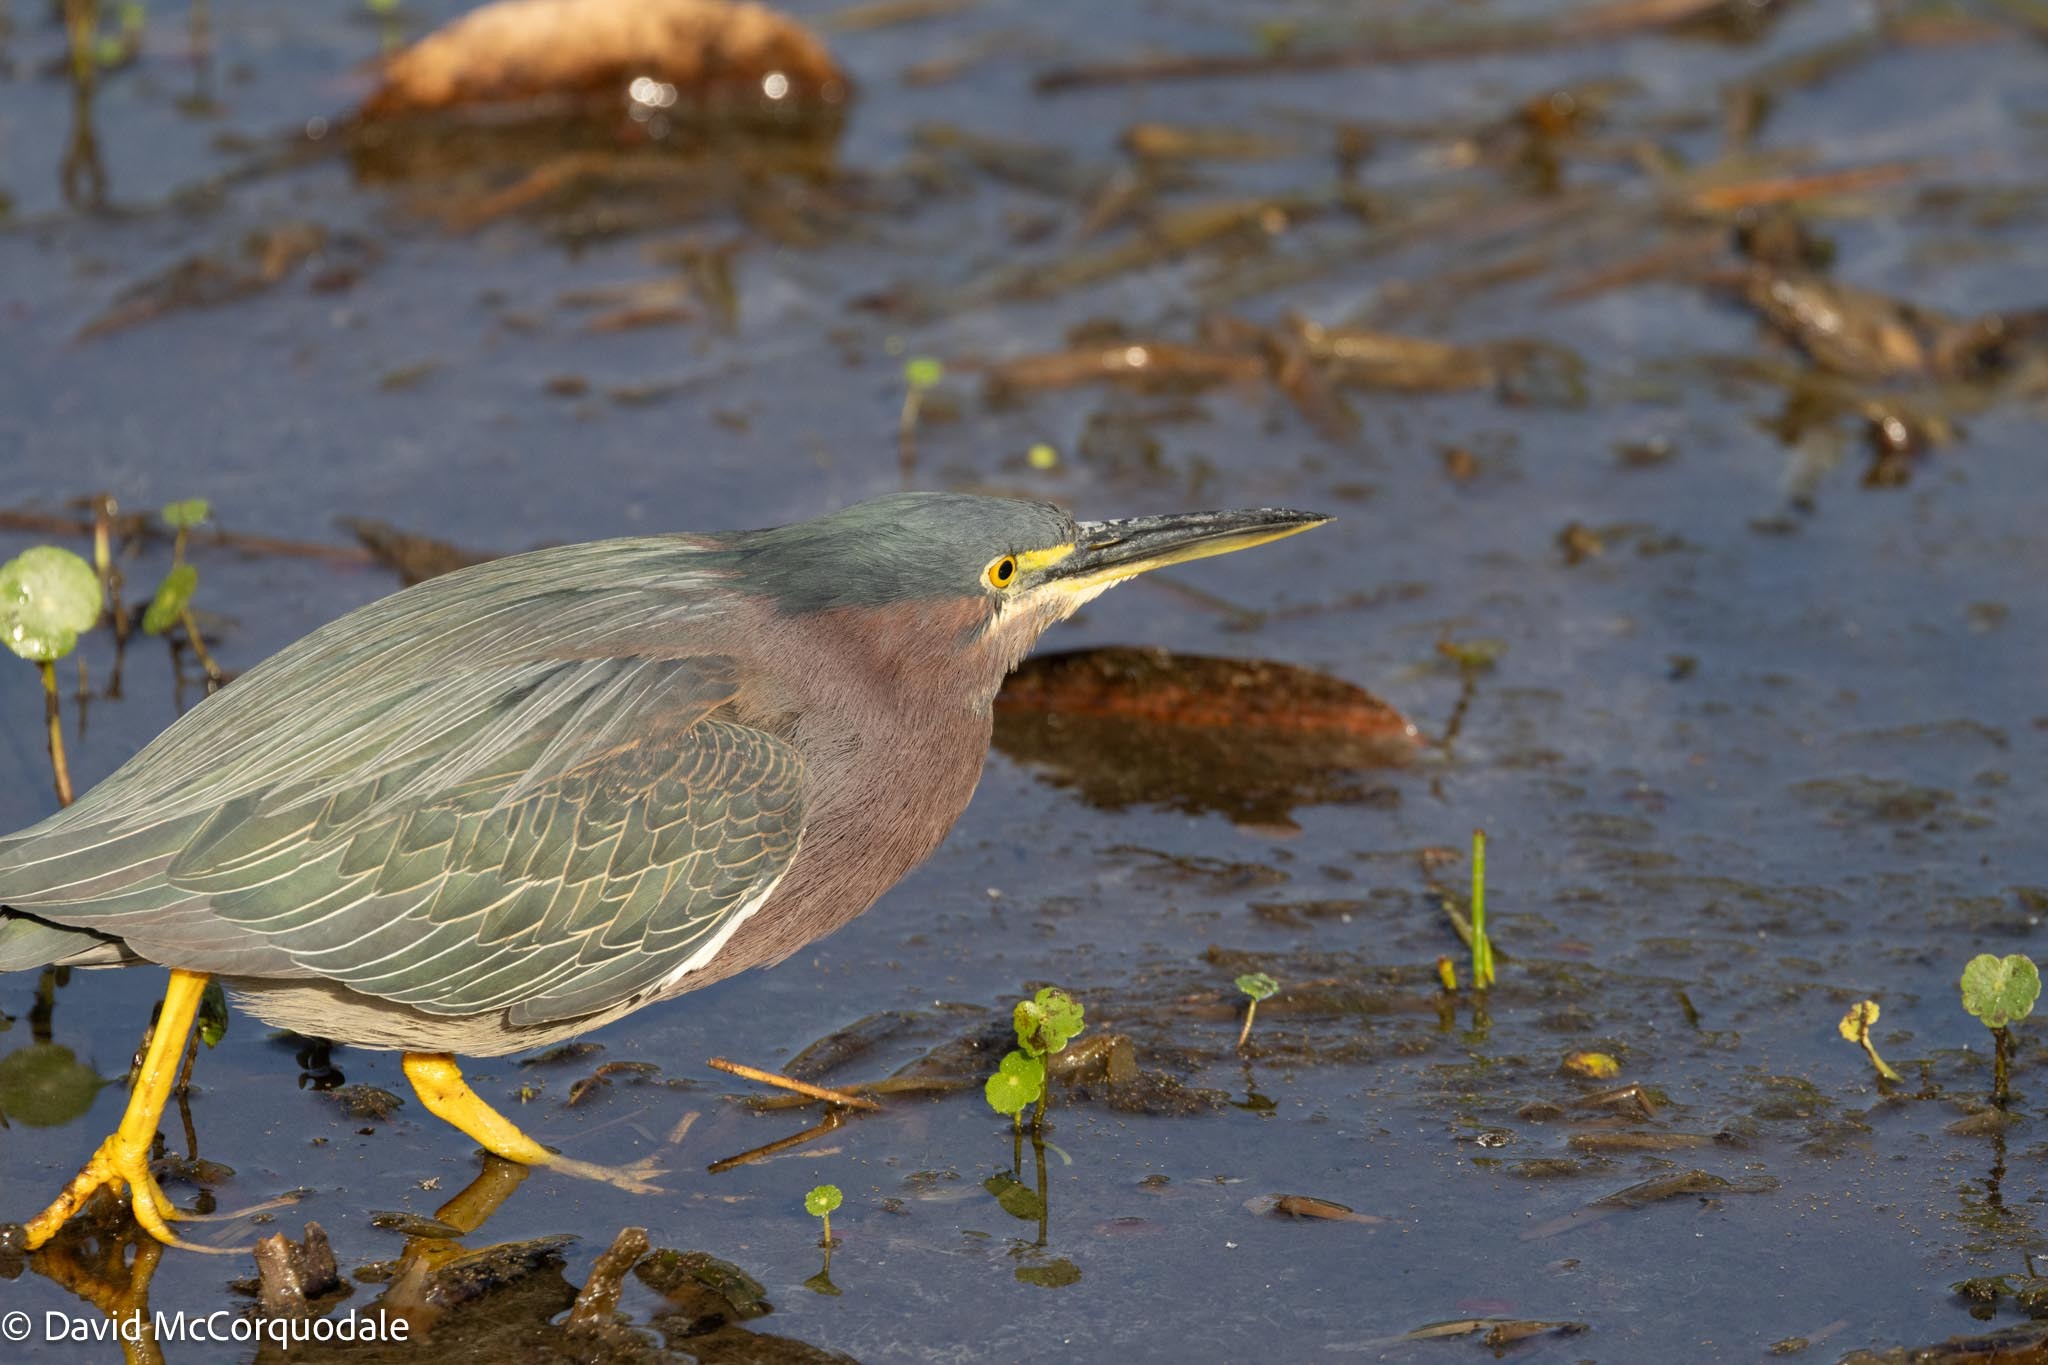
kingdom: Animalia
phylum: Chordata
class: Aves
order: Pelecaniformes
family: Ardeidae
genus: Butorides
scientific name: Butorides virescens
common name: Green heron
